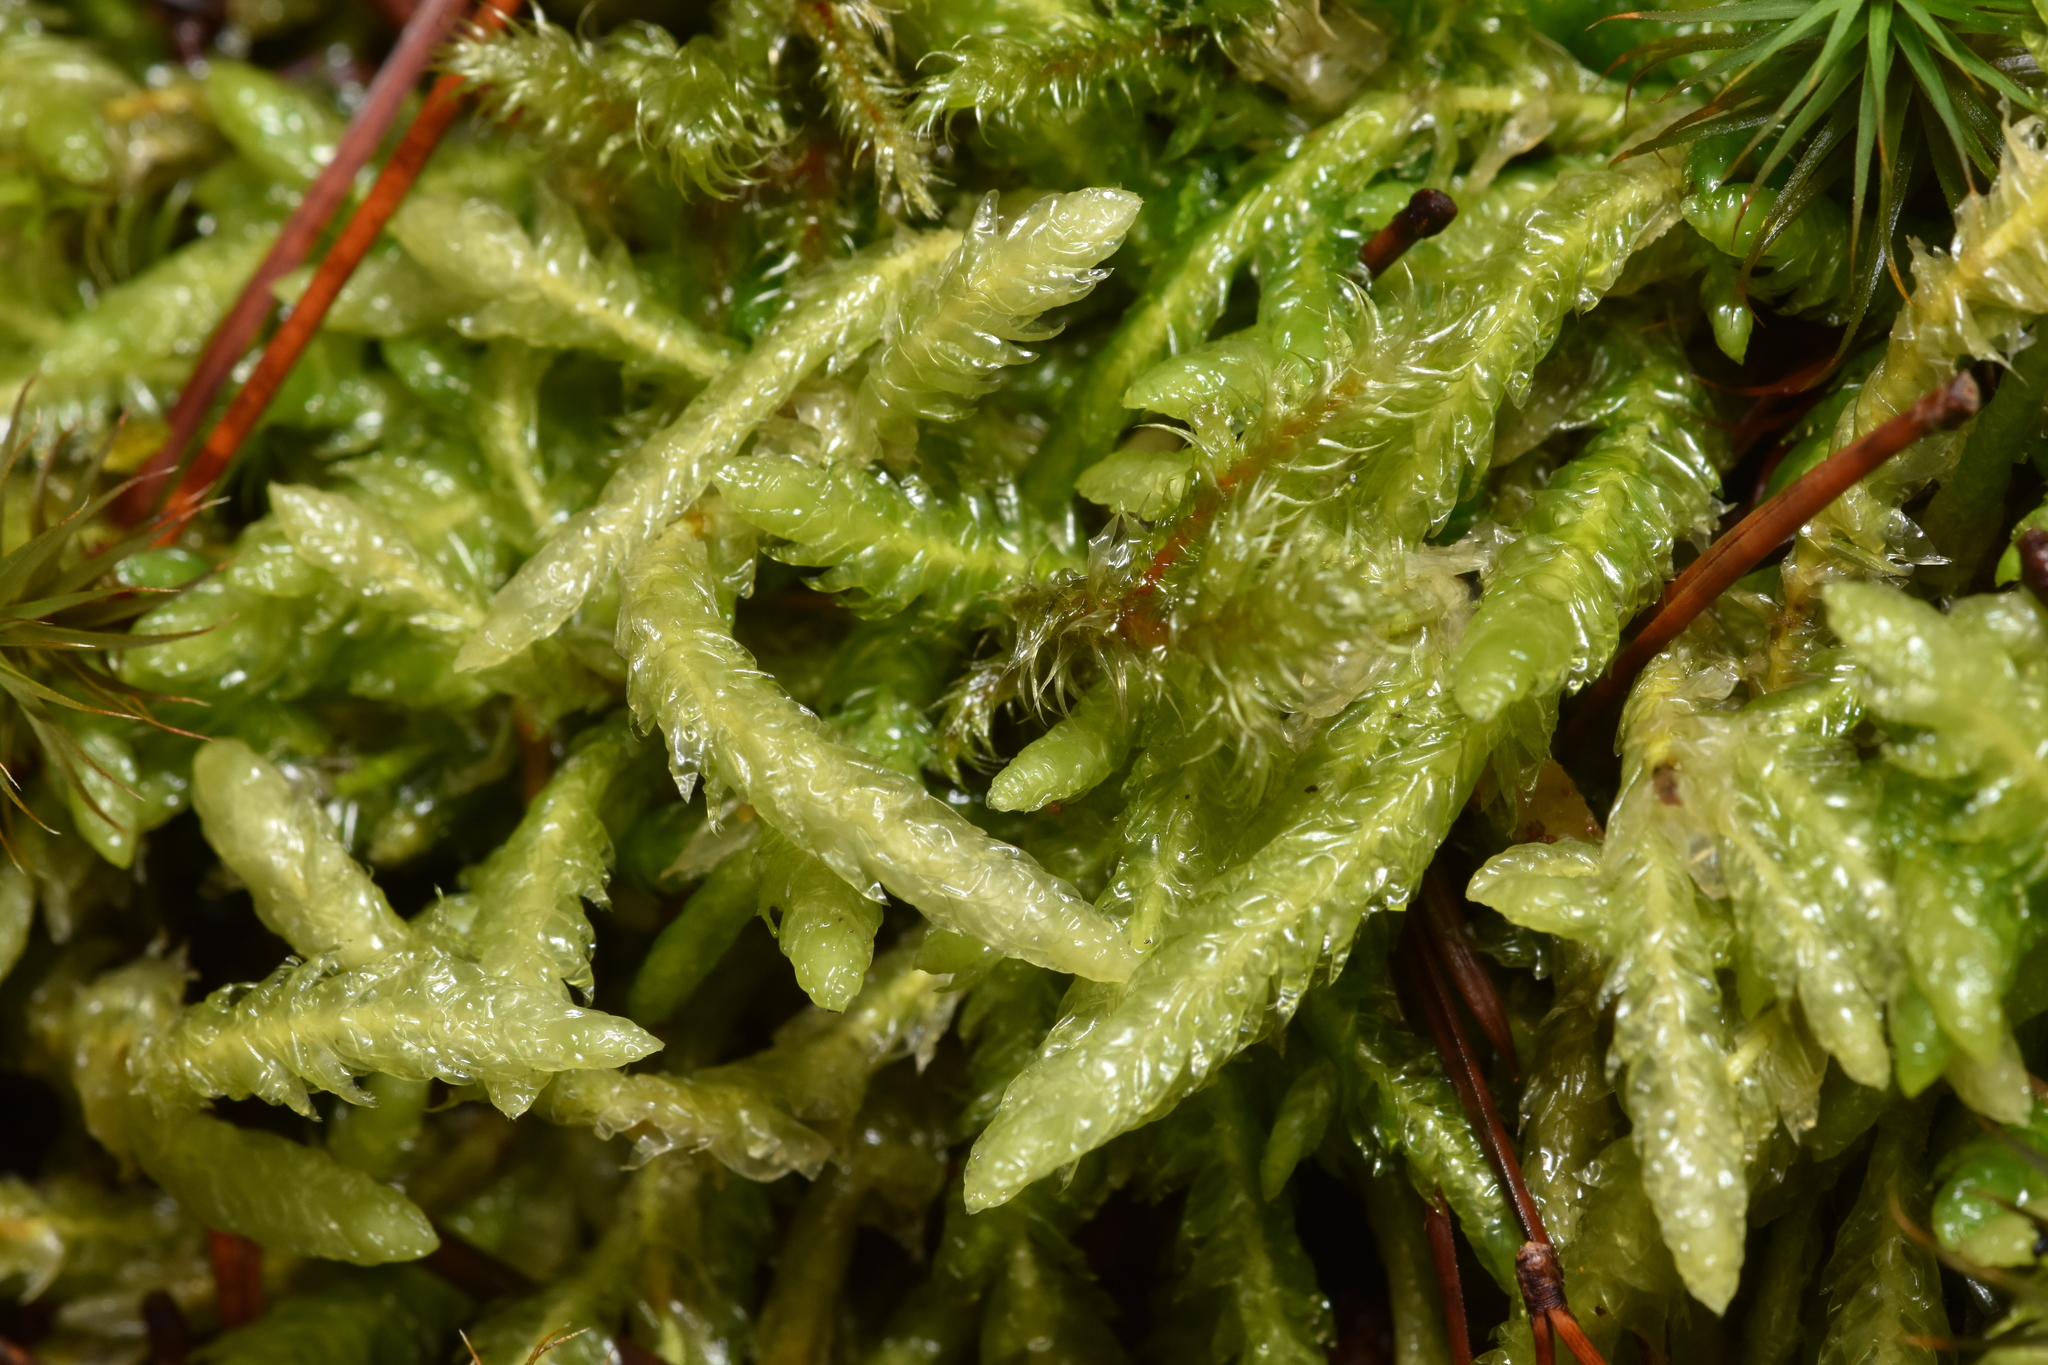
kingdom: Plantae
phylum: Bryophyta
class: Bryopsida
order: Hypnales
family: Plagiotheciaceae
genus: Plagiothecium
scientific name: Plagiothecium undulatum
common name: Waved silk-moss
